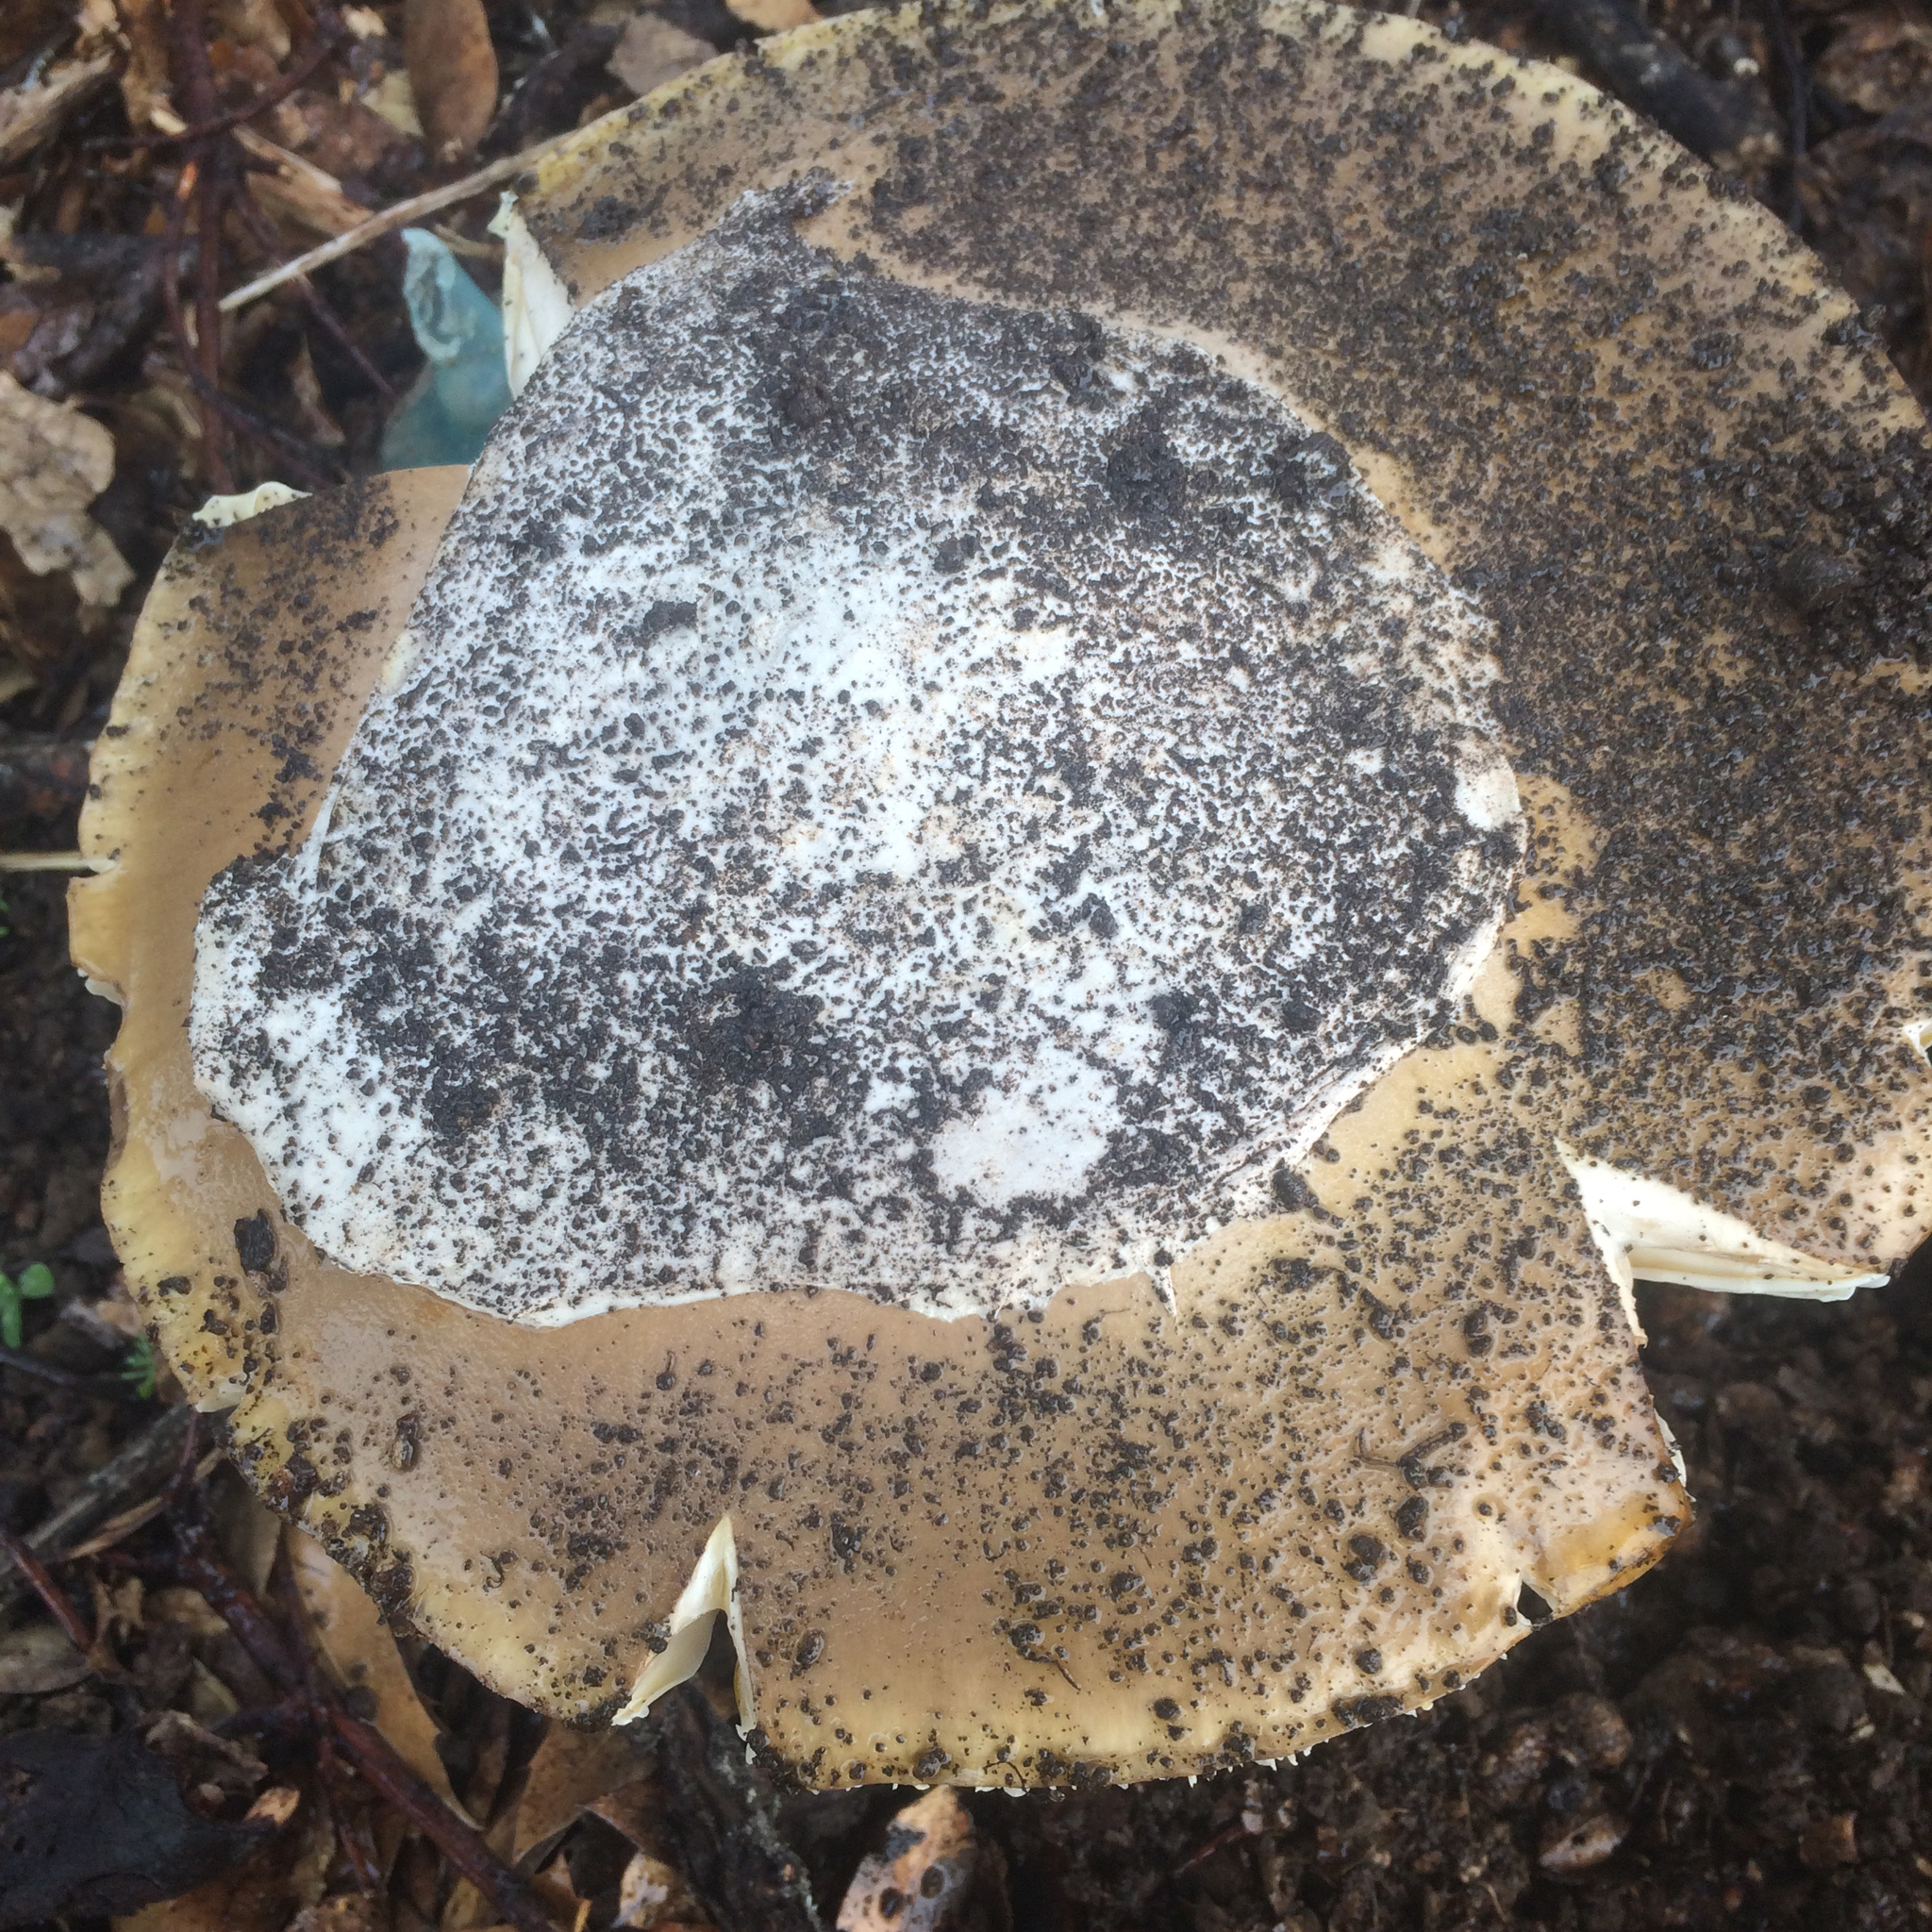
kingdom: Fungi
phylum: Basidiomycota
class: Agaricomycetes
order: Agaricales
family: Amanitaceae
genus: Amanita
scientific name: Amanita calyptroderma
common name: Coccora
